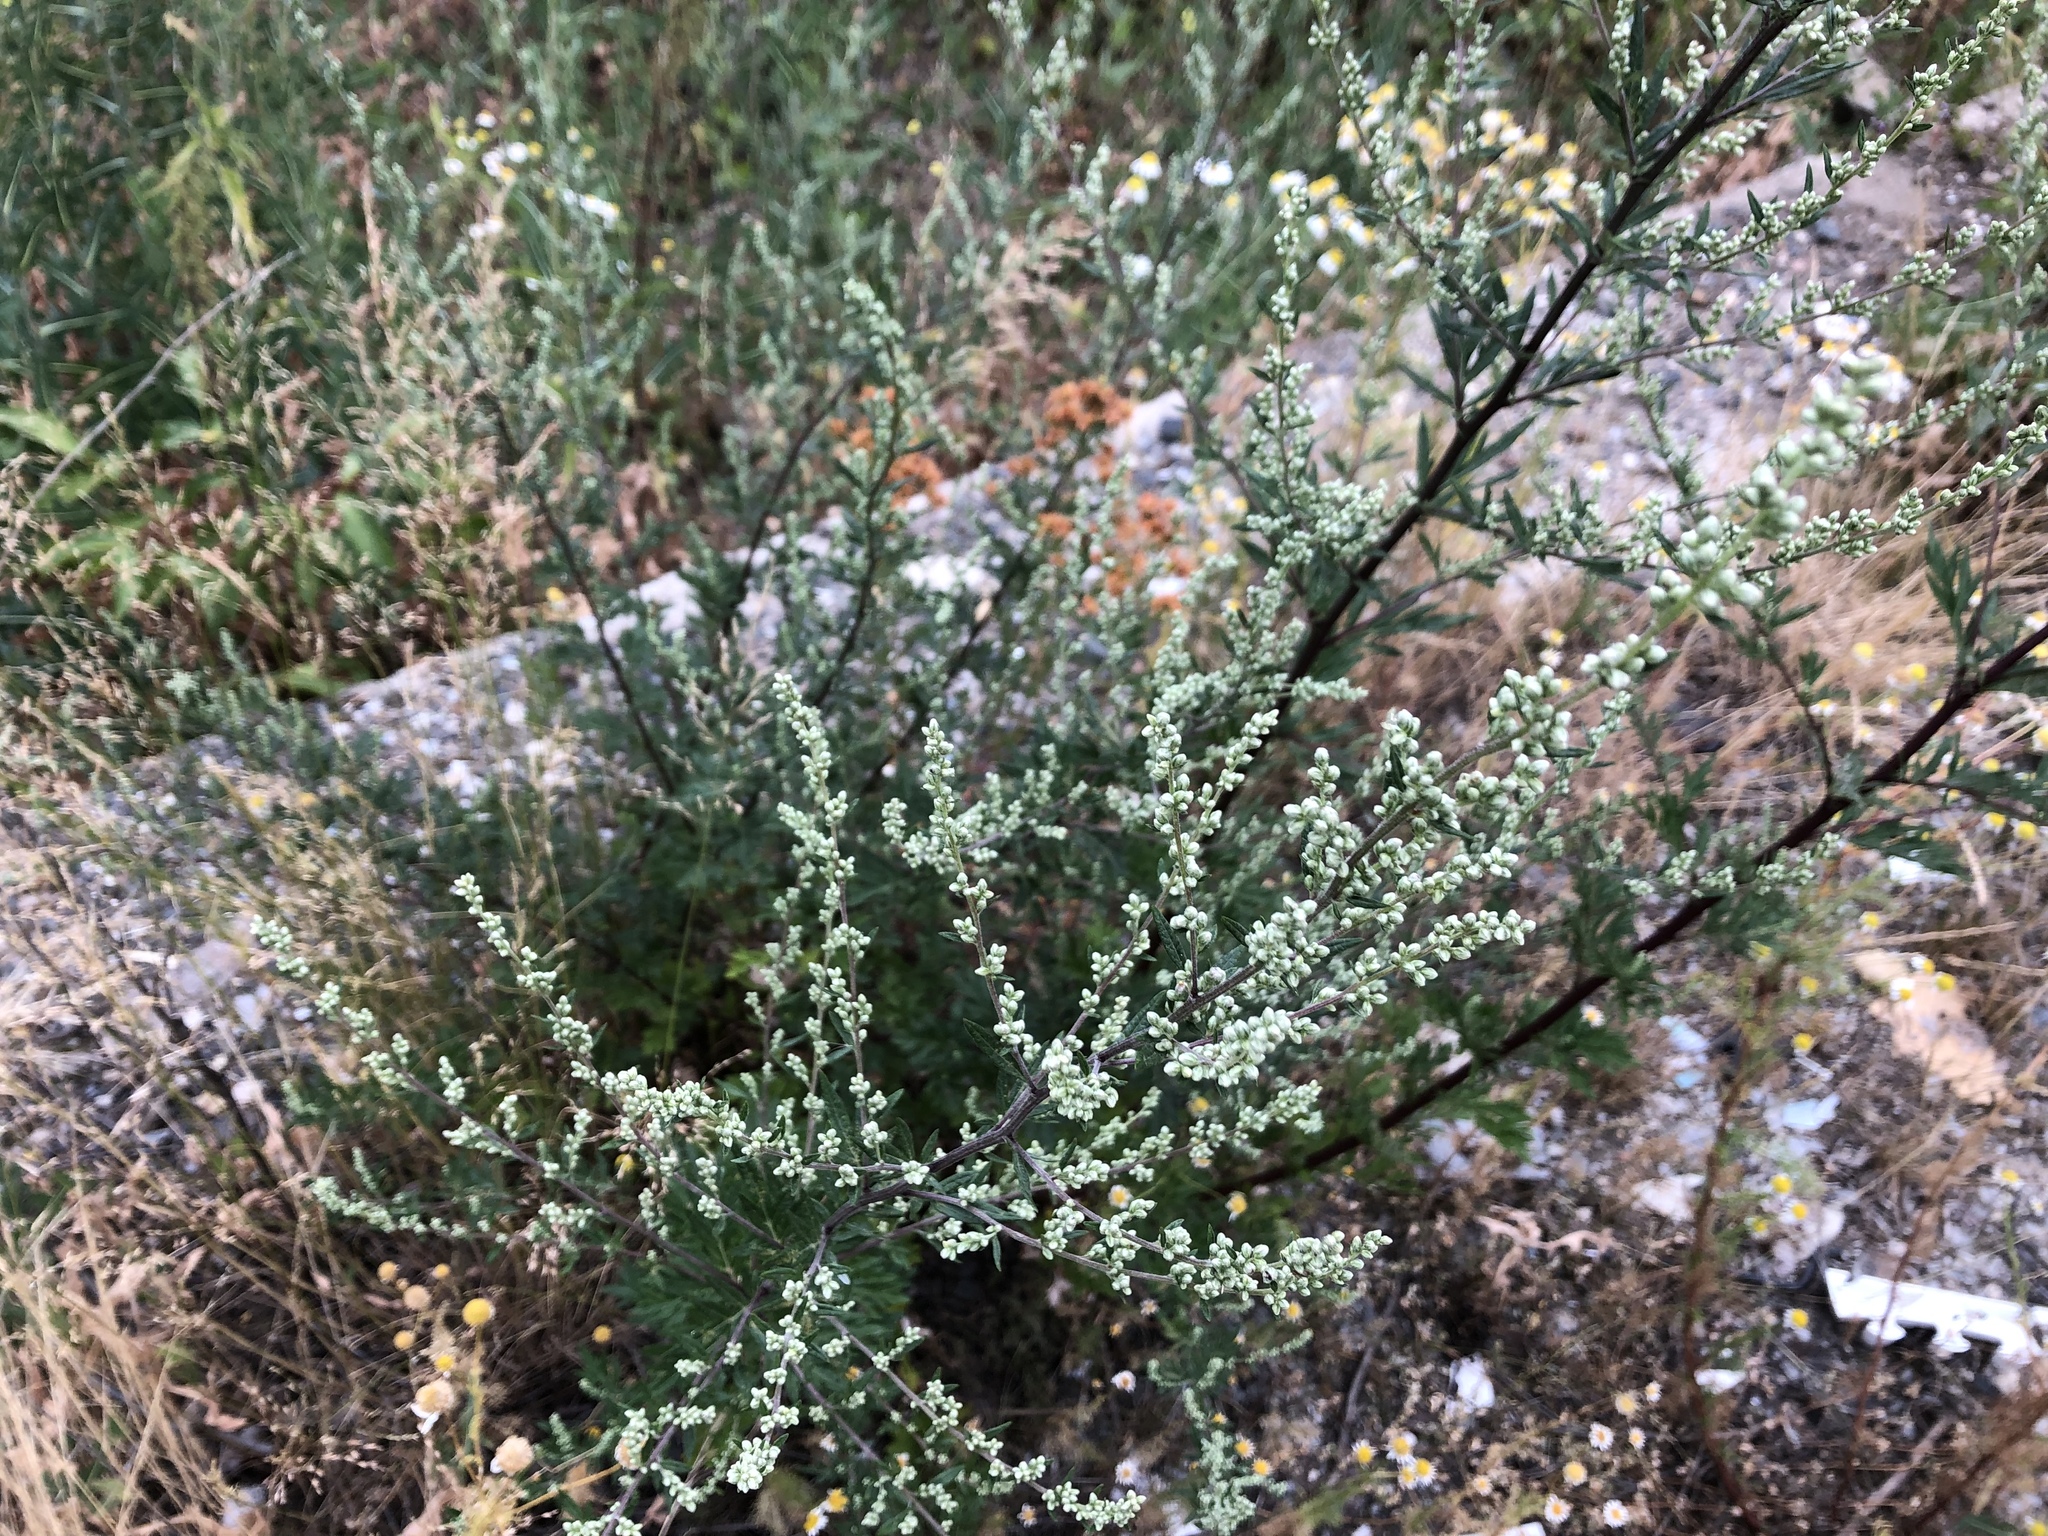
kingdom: Plantae
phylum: Tracheophyta
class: Magnoliopsida
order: Asterales
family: Asteraceae
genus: Artemisia
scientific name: Artemisia vulgaris
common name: Mugwort
